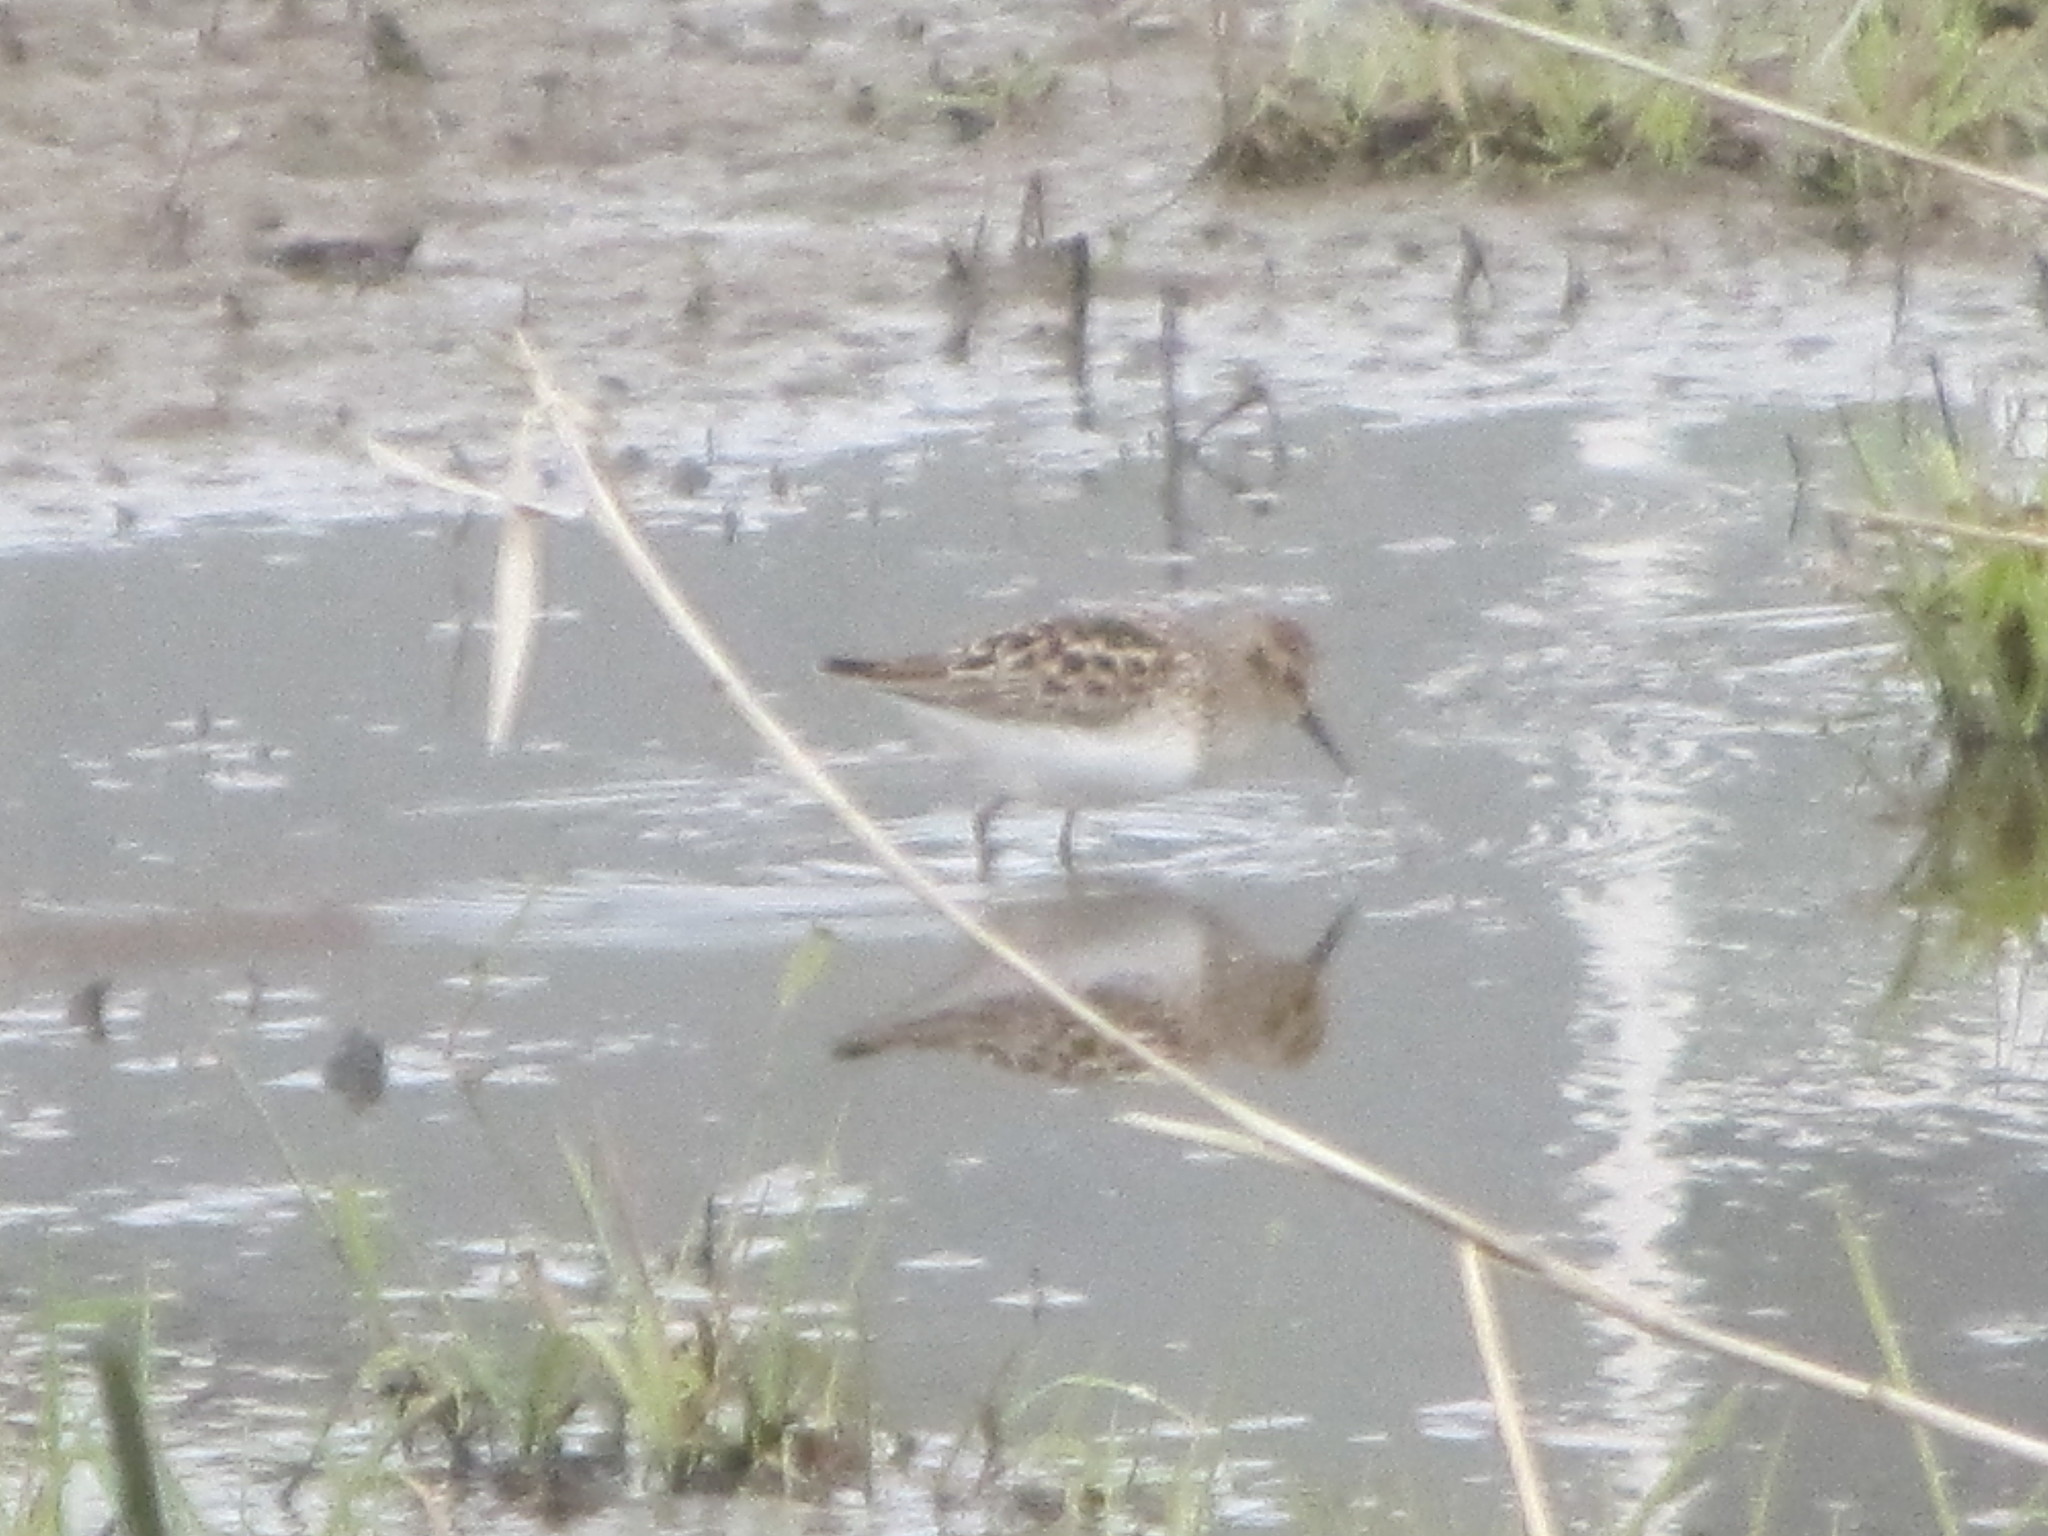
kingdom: Animalia
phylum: Chordata
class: Aves
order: Charadriiformes
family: Scolopacidae
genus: Calidris
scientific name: Calidris minutilla
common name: Least sandpiper
